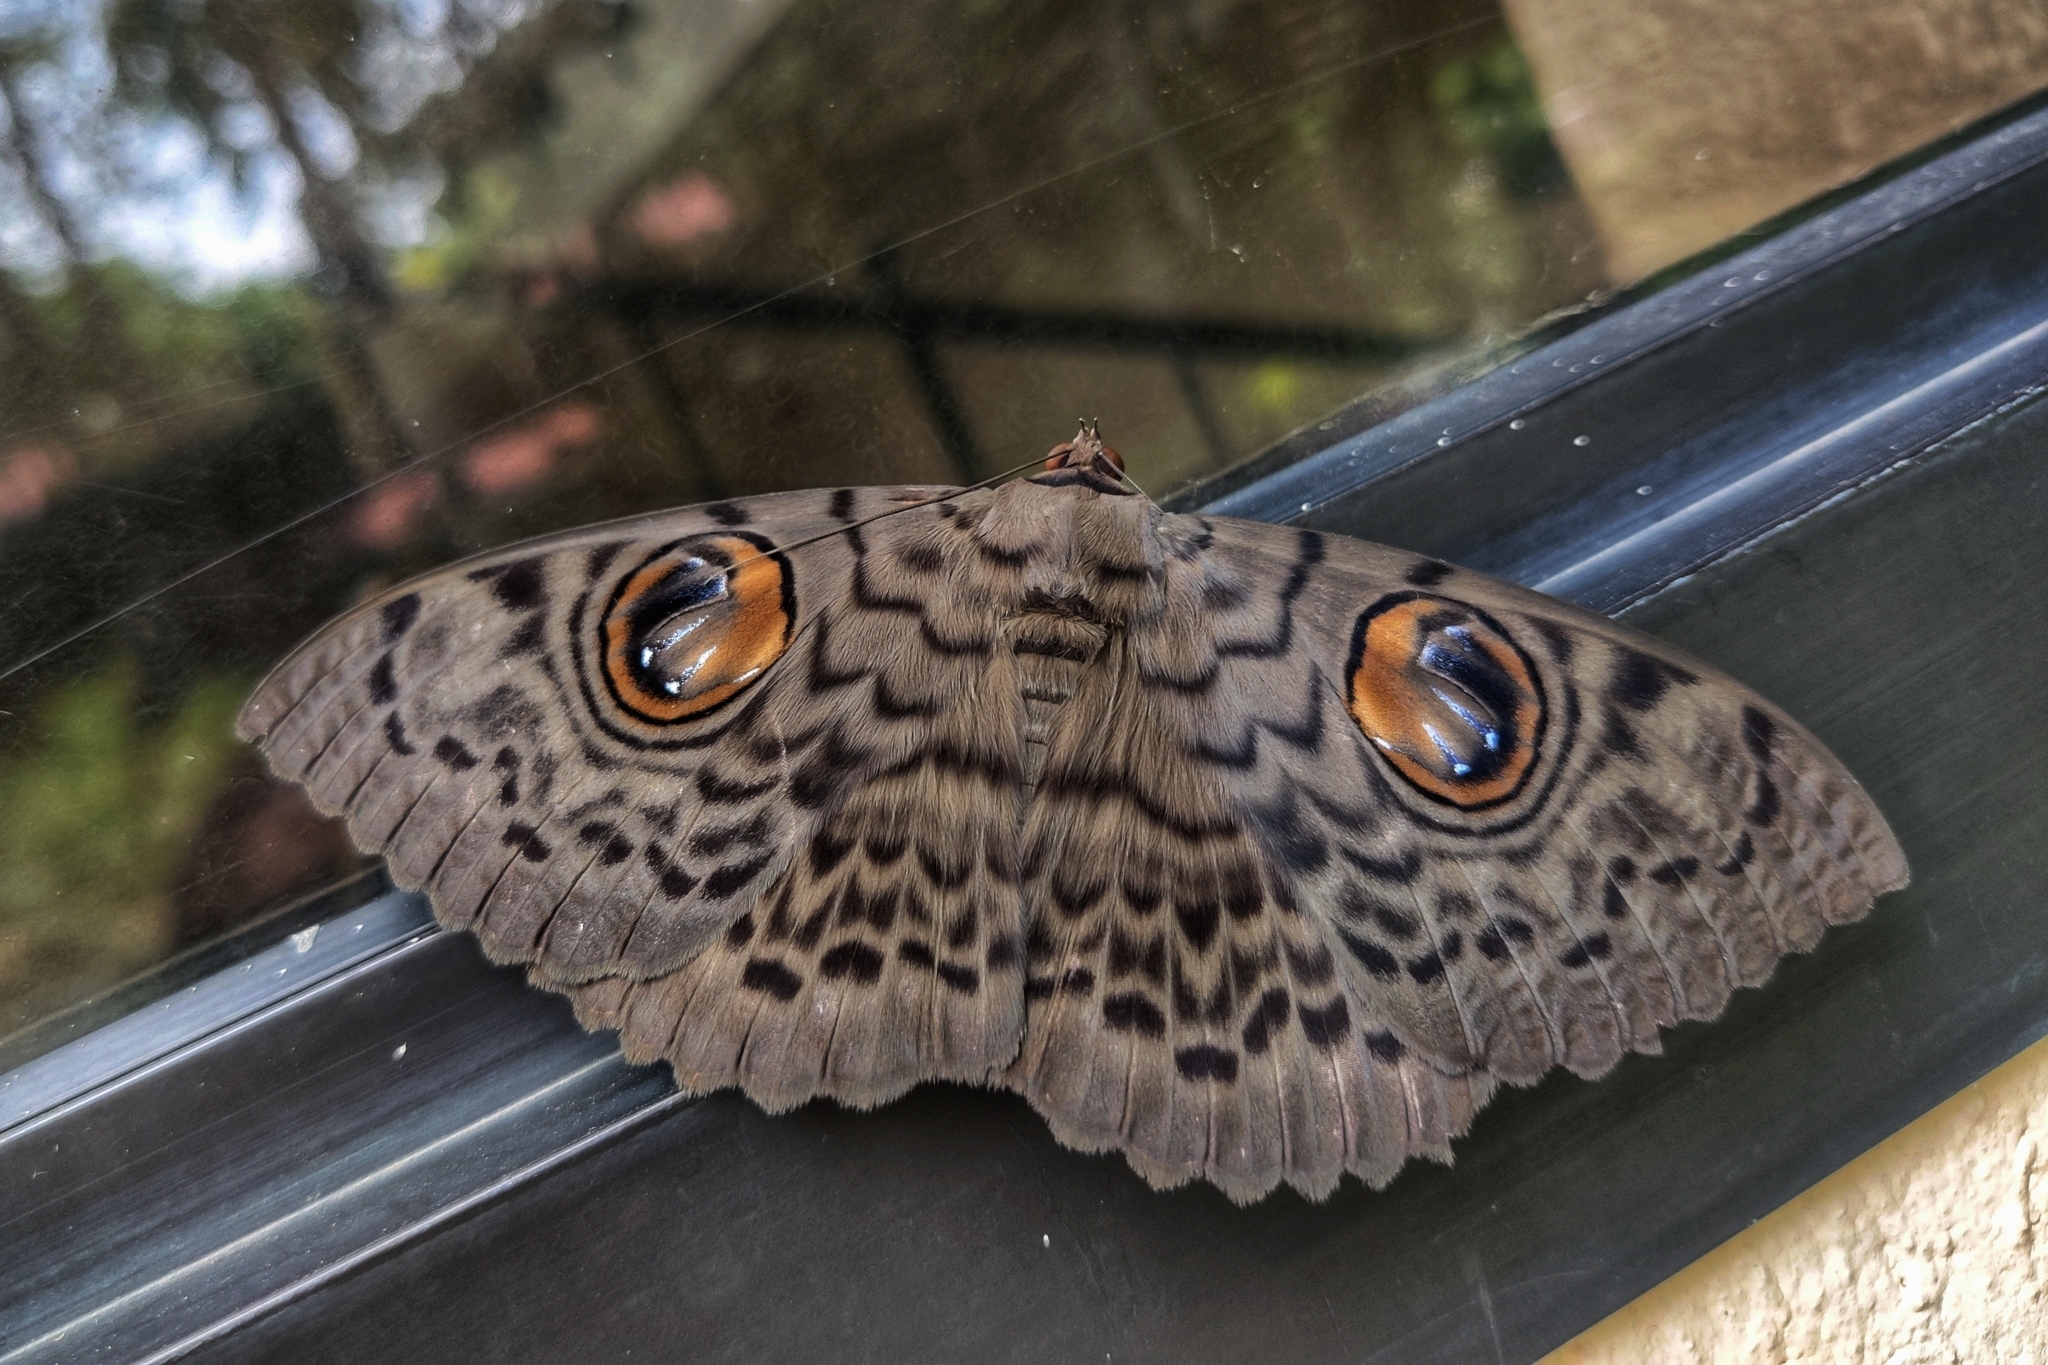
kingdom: Animalia
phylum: Arthropoda
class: Insecta
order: Lepidoptera
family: Erebidae
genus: Erebus
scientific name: Erebus macrops
